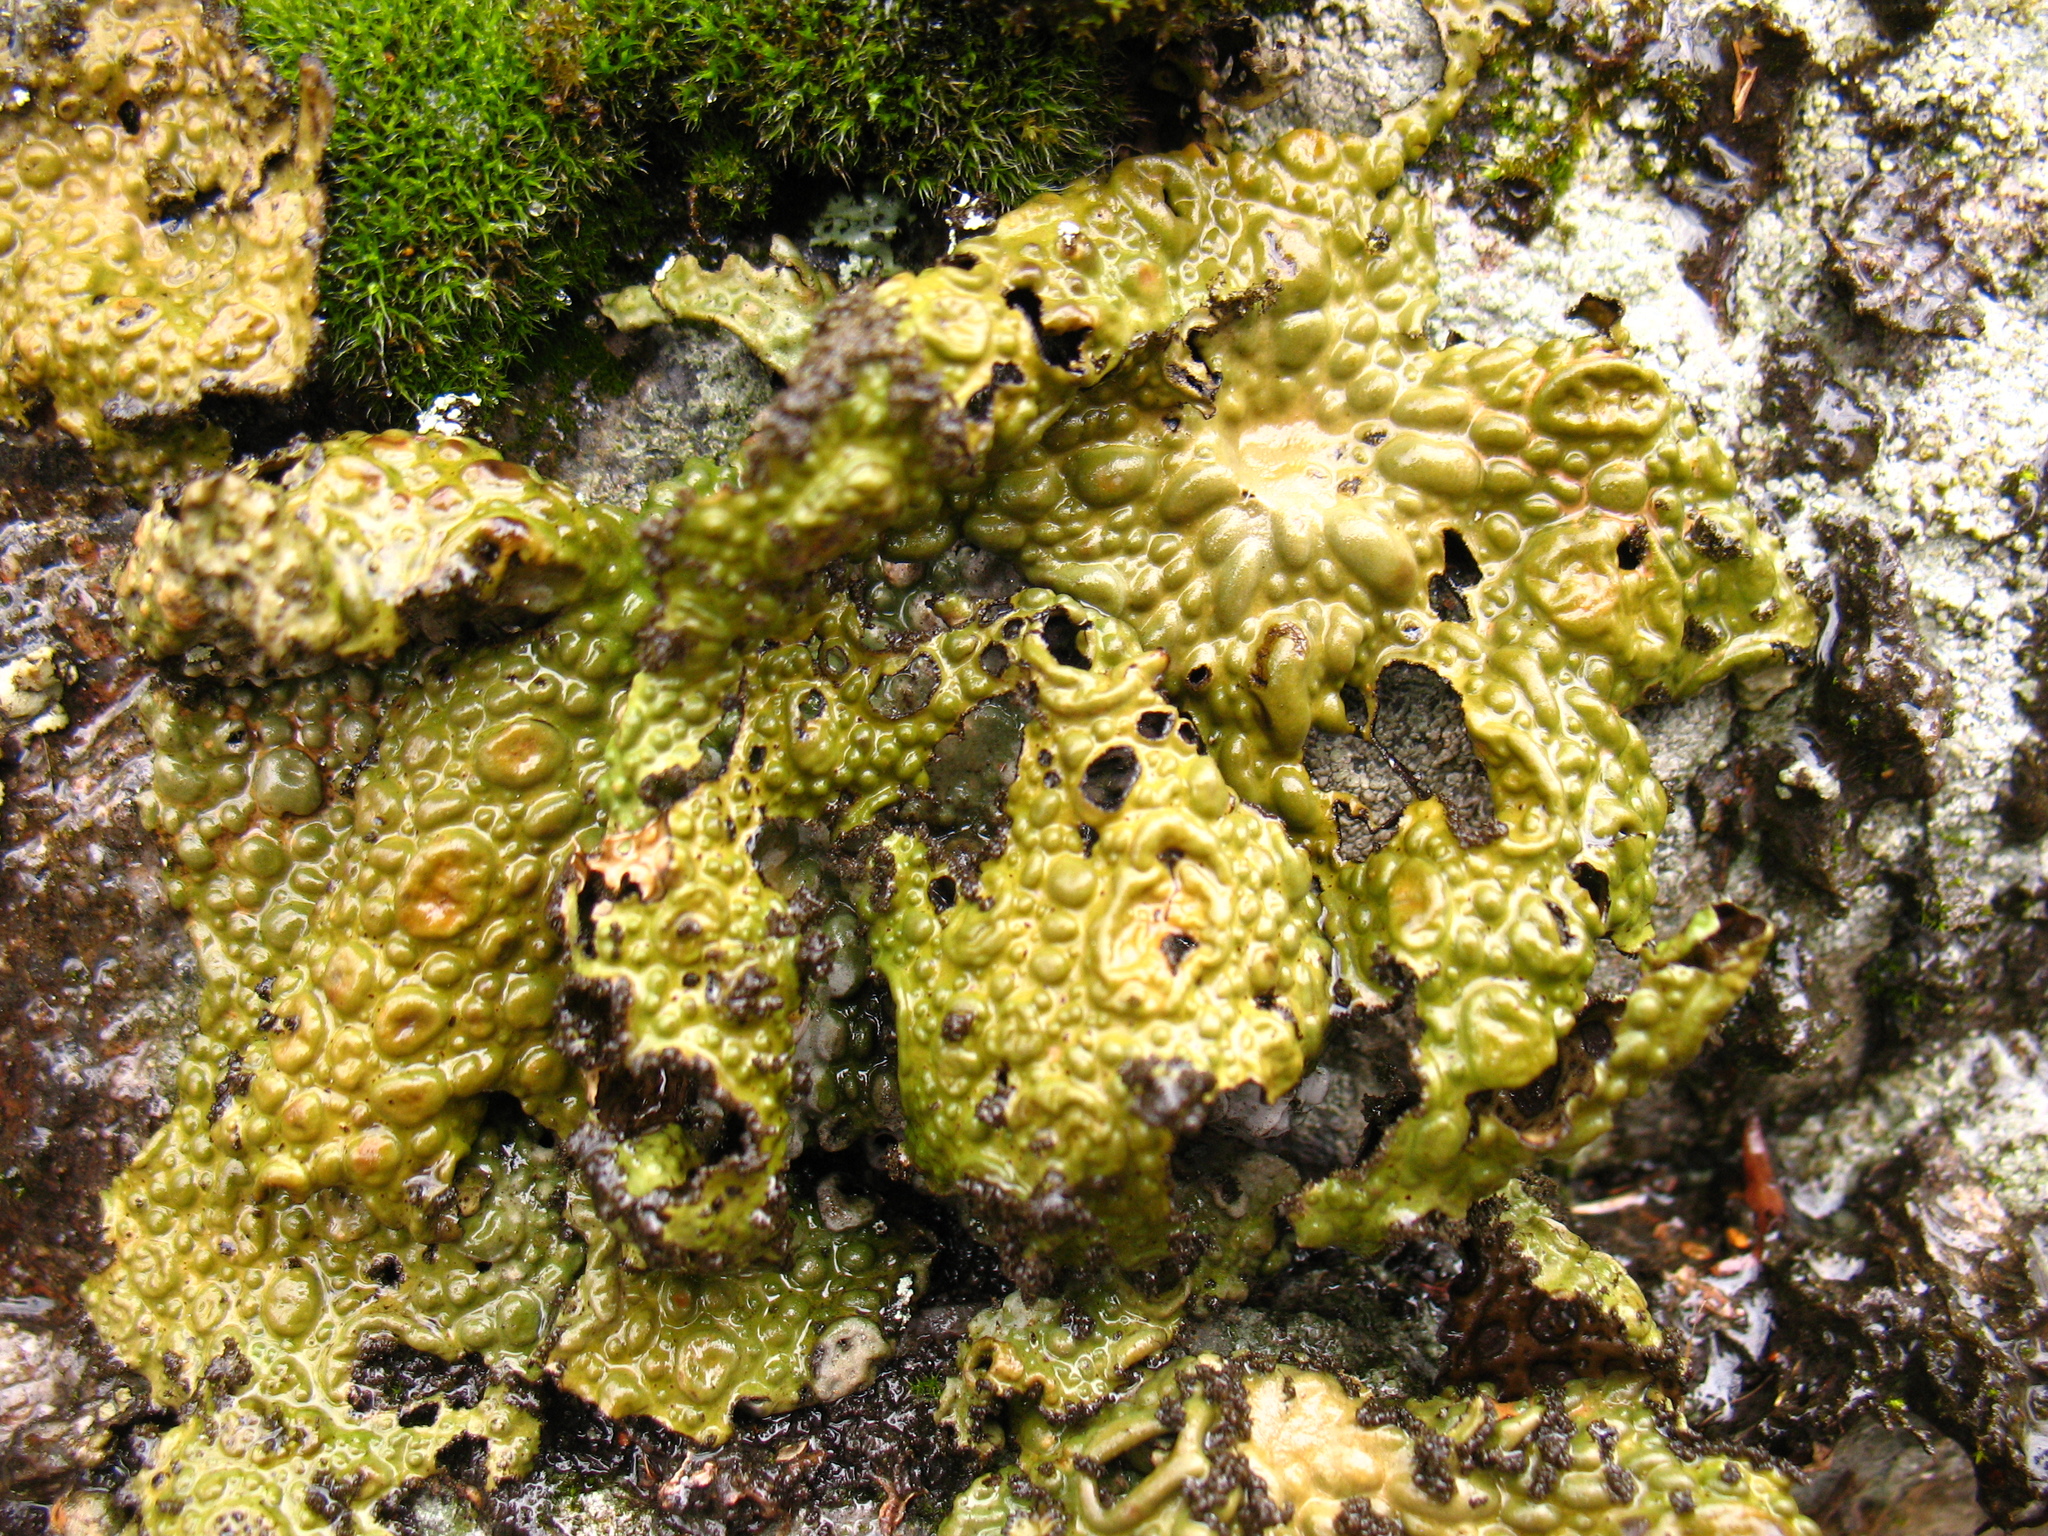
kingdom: Fungi
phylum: Ascomycota
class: Lecanoromycetes
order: Umbilicariales
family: Umbilicariaceae
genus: Lasallia
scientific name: Lasallia pustulata
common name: Blistered toadskin lichen
